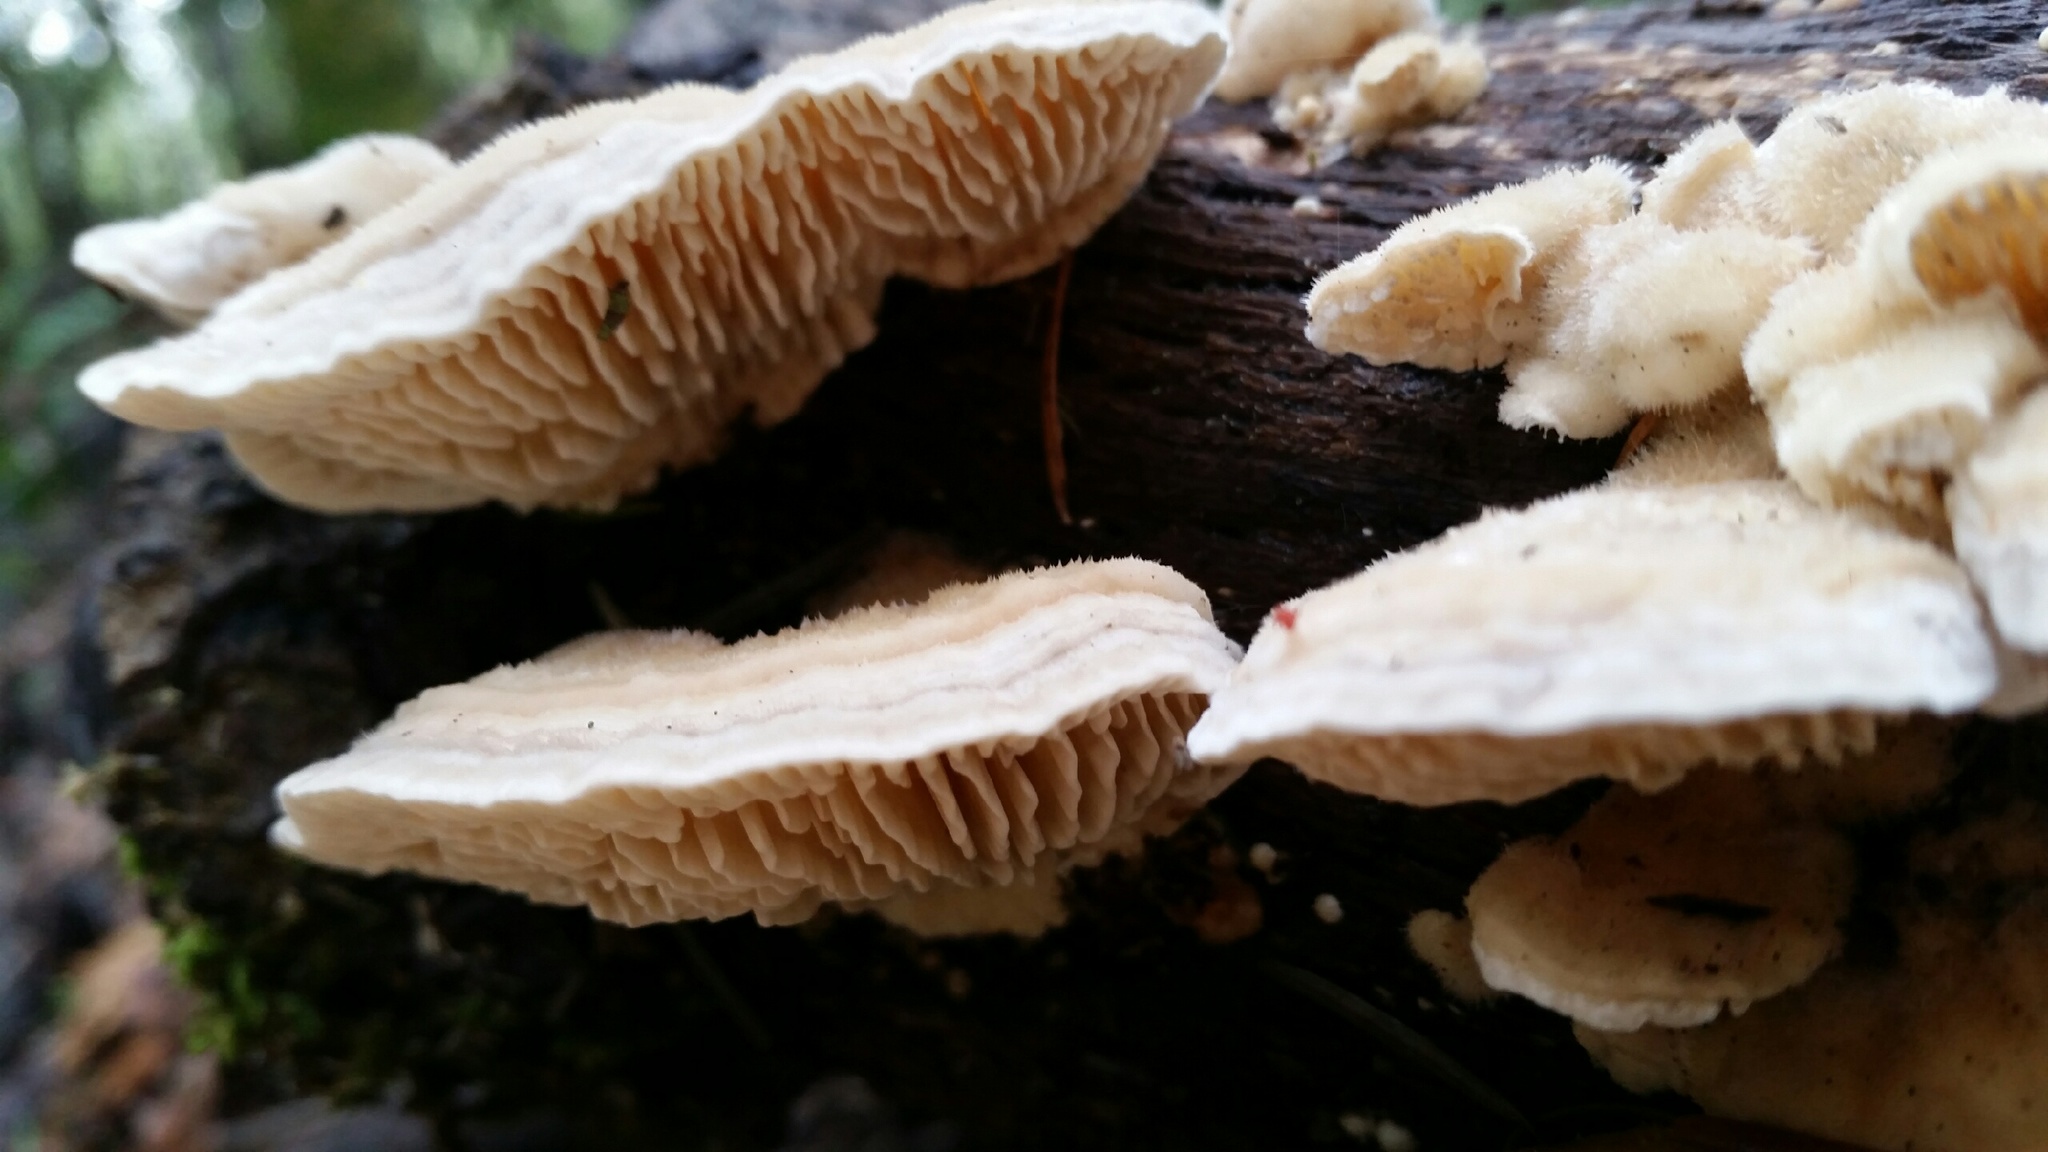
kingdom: Fungi
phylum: Basidiomycota
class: Agaricomycetes
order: Polyporales
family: Polyporaceae
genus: Lenzites
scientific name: Lenzites betulinus
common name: Birch mazegill
